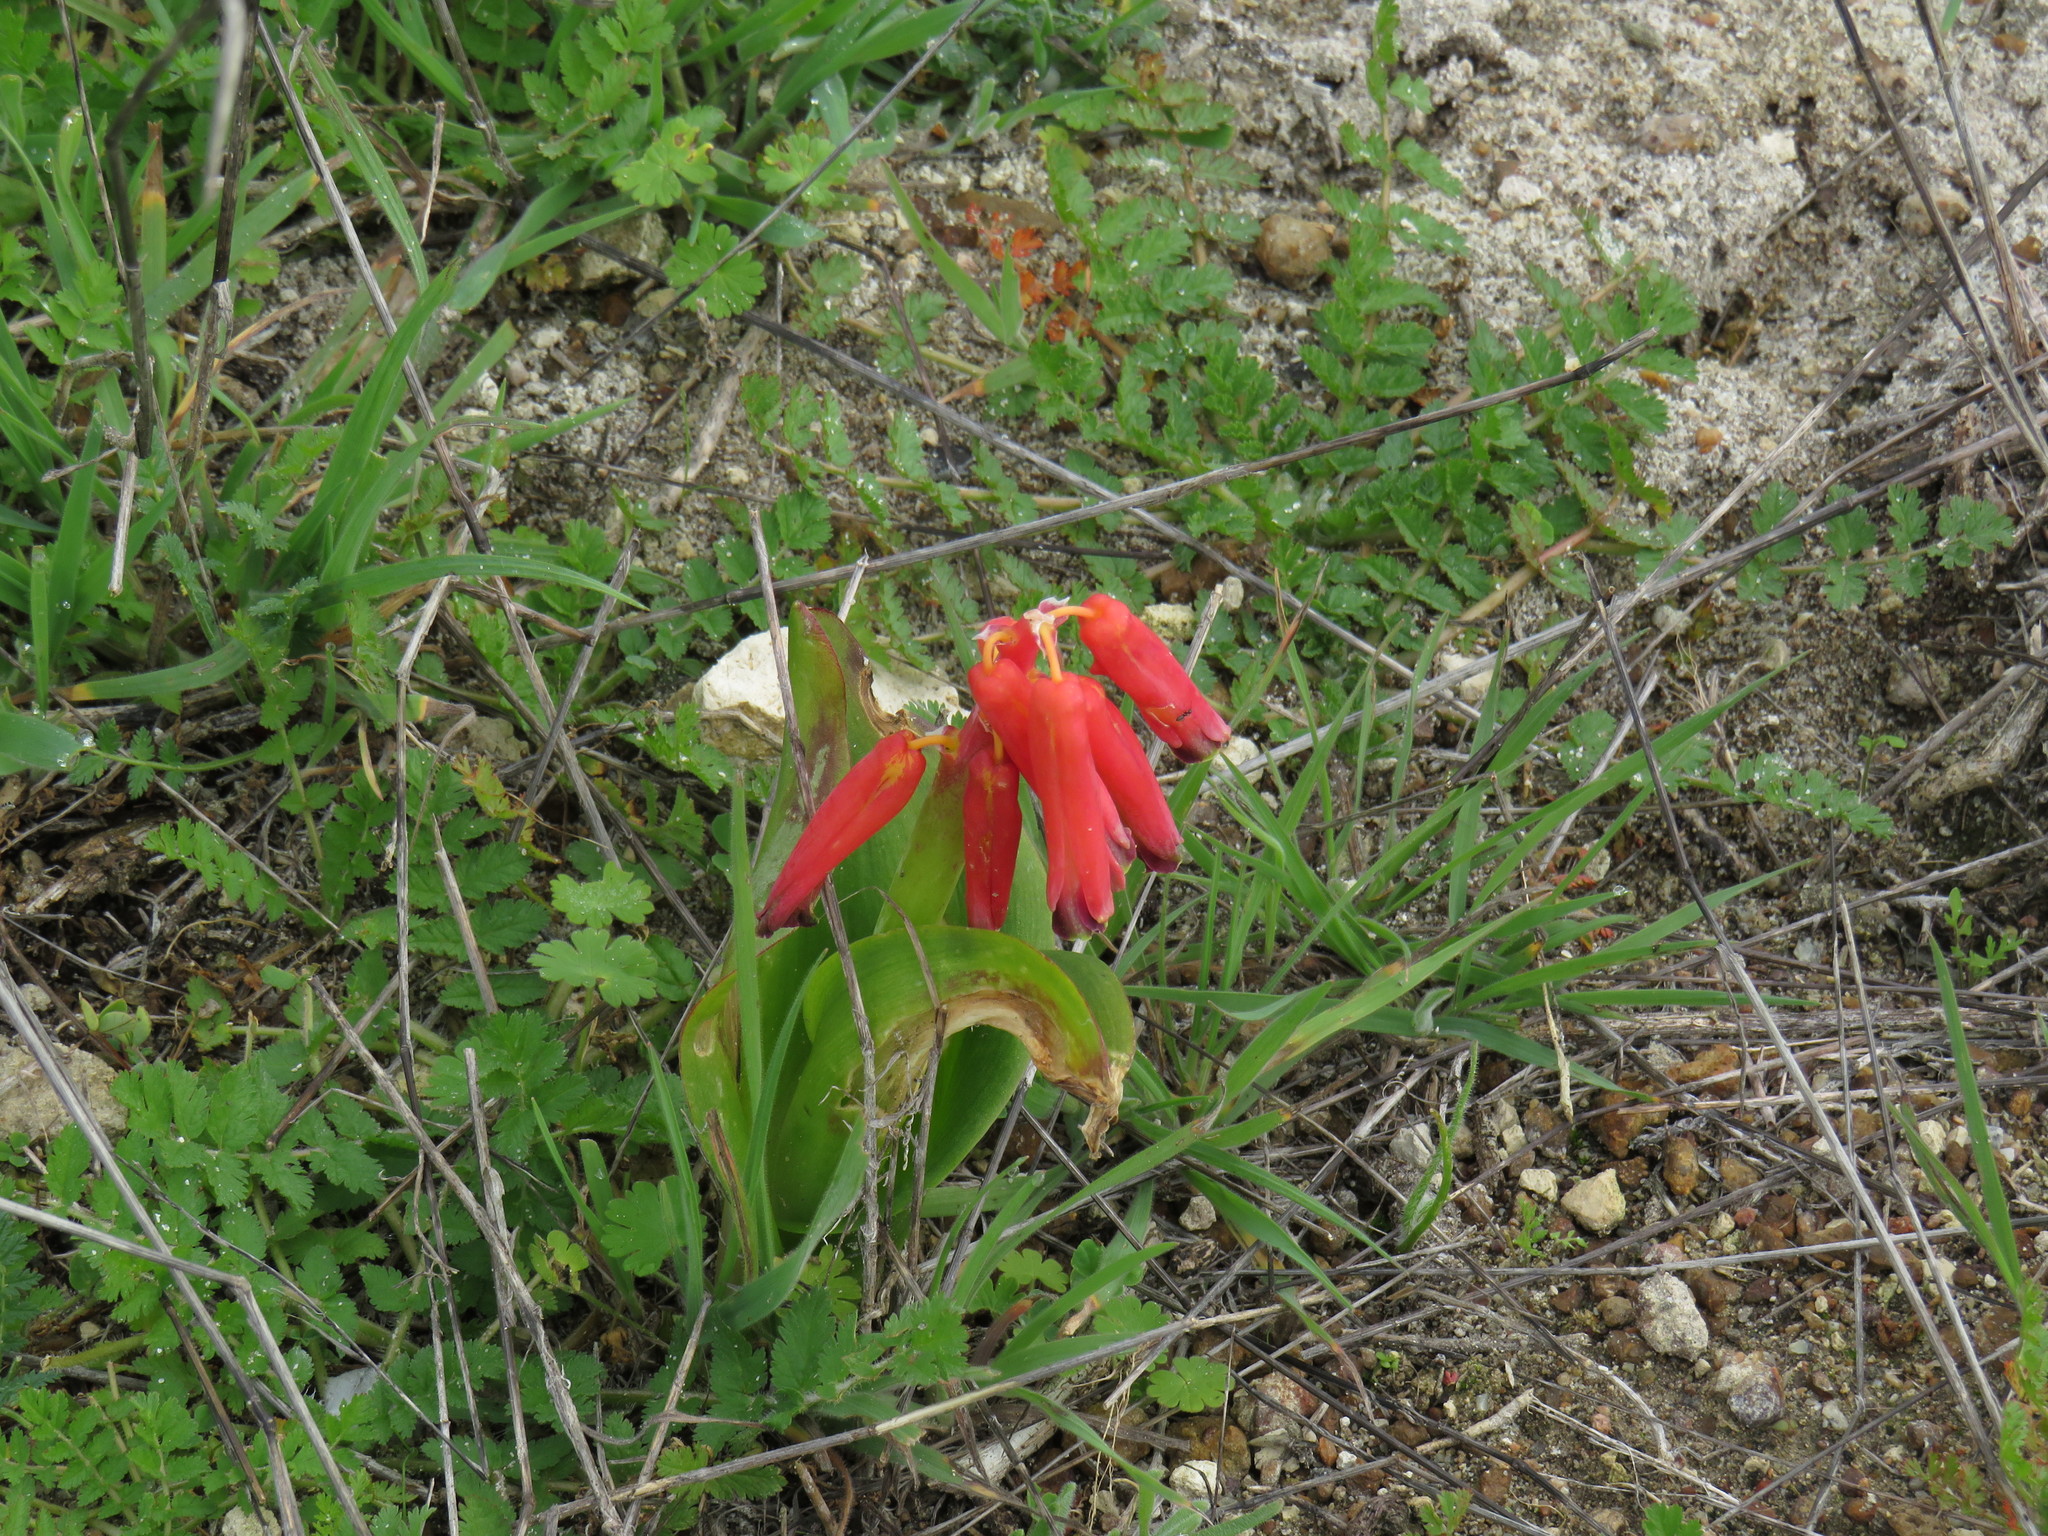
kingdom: Plantae
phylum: Tracheophyta
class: Liliopsida
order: Asparagales
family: Asparagaceae
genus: Lachenalia
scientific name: Lachenalia bulbifera
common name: Red lachenalia
